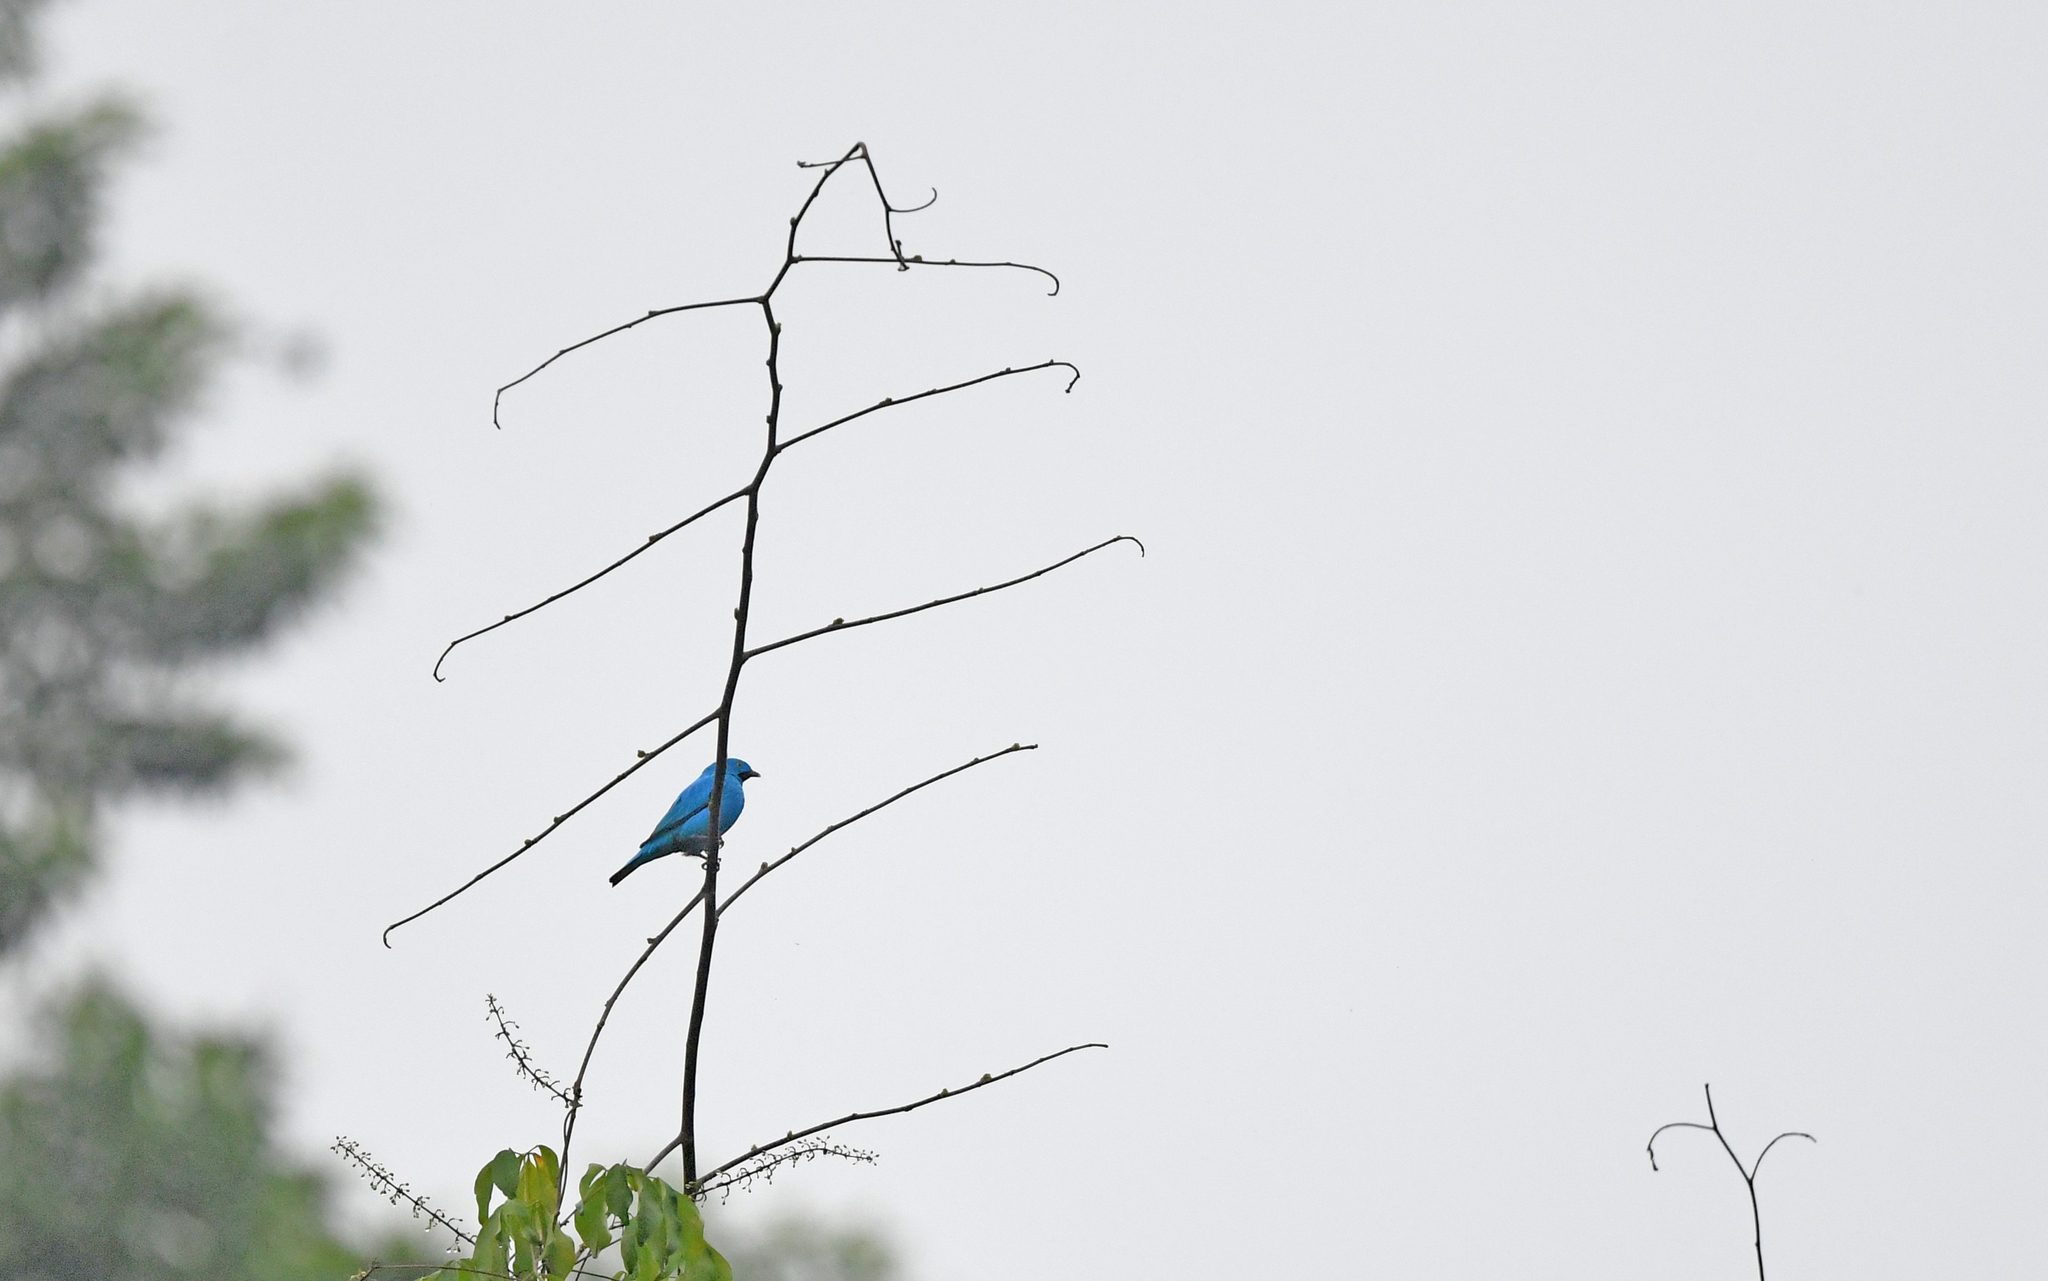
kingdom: Animalia
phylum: Chordata
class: Aves
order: Passeriformes
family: Cotingidae
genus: Cotinga
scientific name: Cotinga maynana
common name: Plum-throated cotinga
